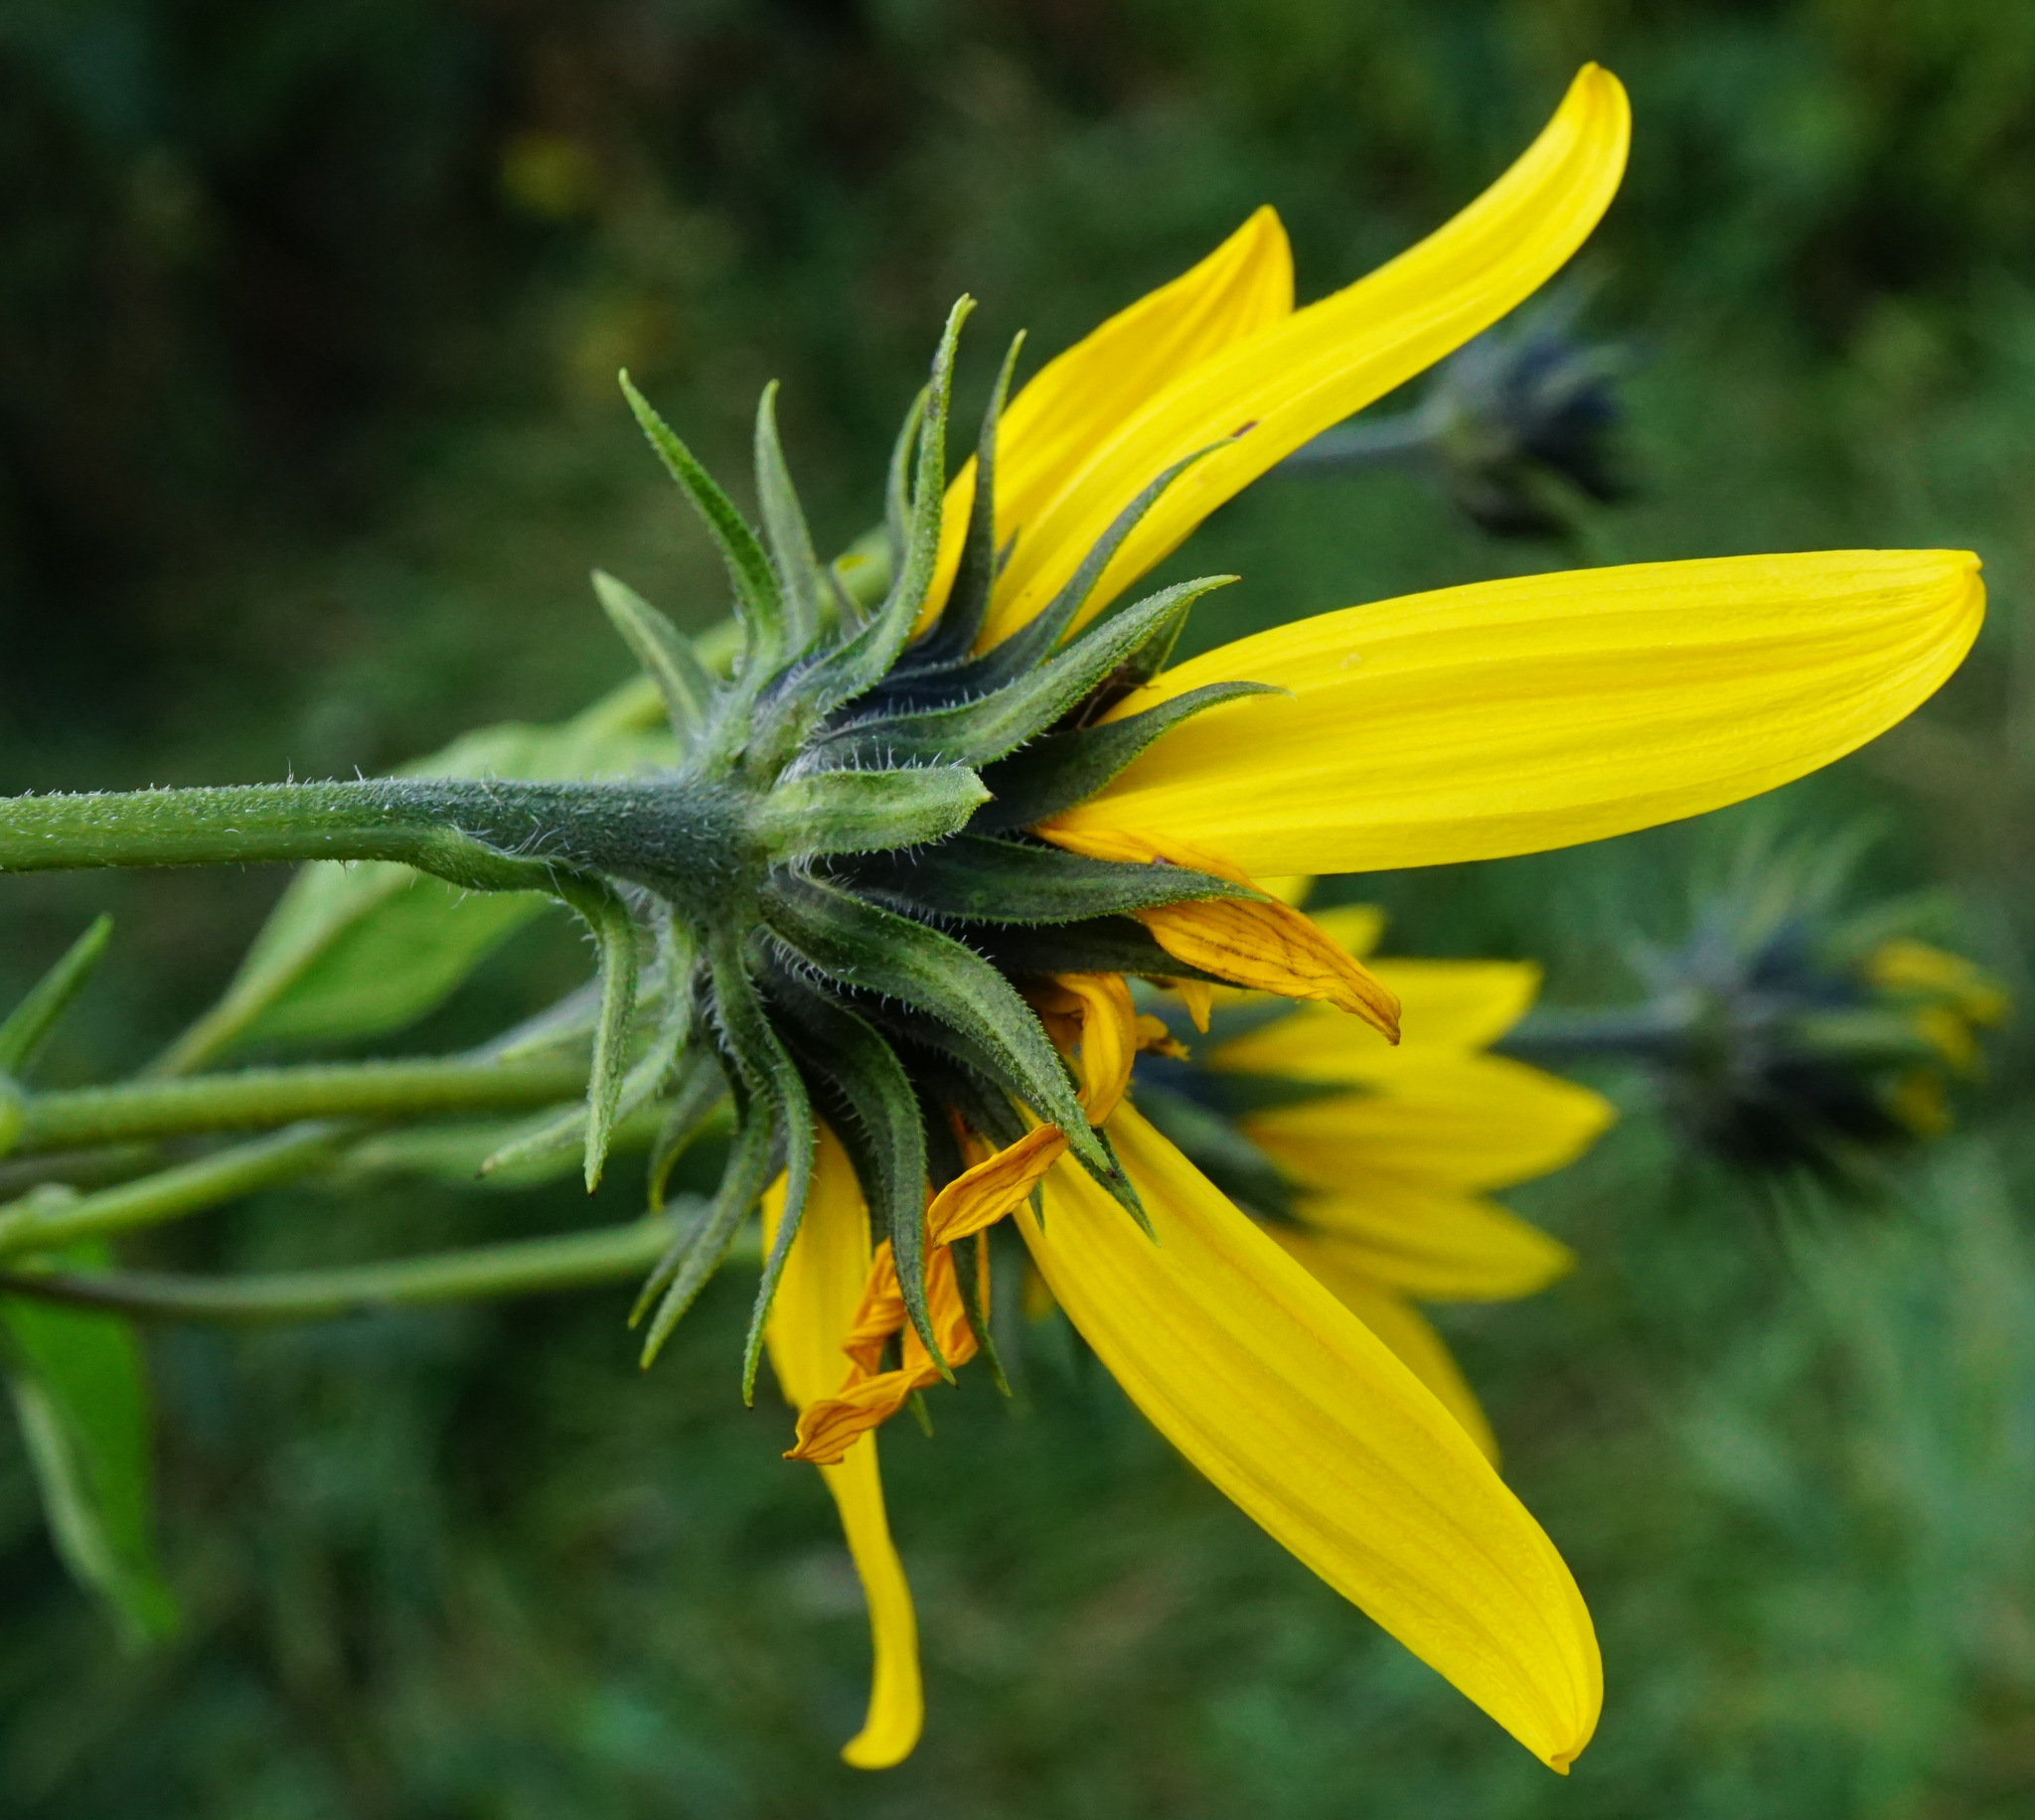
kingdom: Plantae
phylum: Tracheophyta
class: Magnoliopsida
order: Asterales
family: Asteraceae
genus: Helianthus
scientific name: Helianthus tuberosus
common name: Jerusalem artichoke
